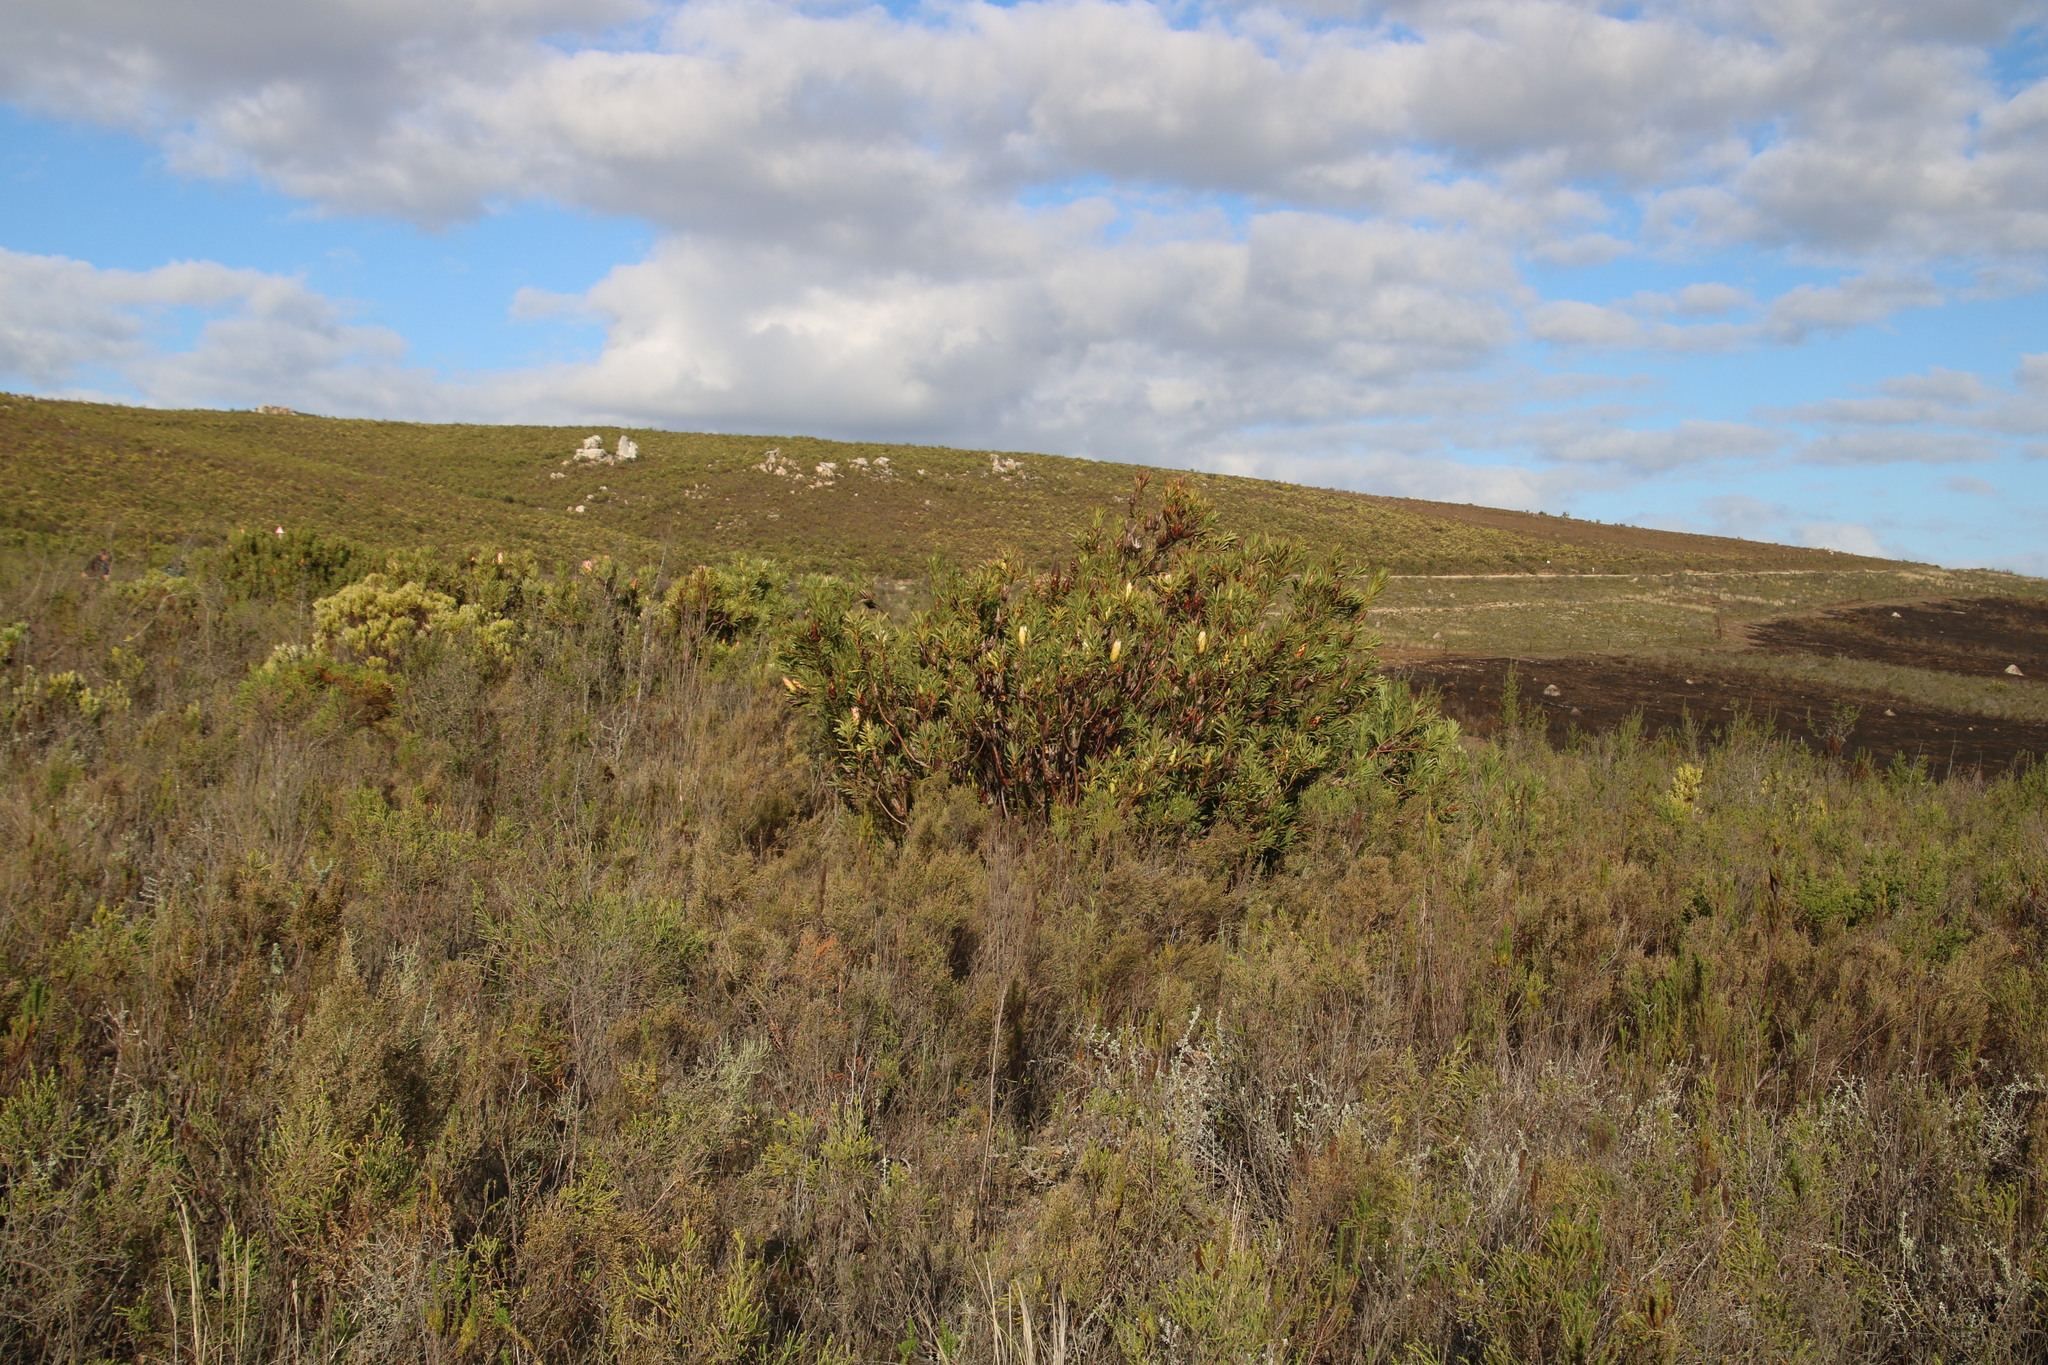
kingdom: Plantae
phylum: Tracheophyta
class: Magnoliopsida
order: Proteales
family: Proteaceae
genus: Protea
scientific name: Protea repens
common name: Sugarbush
